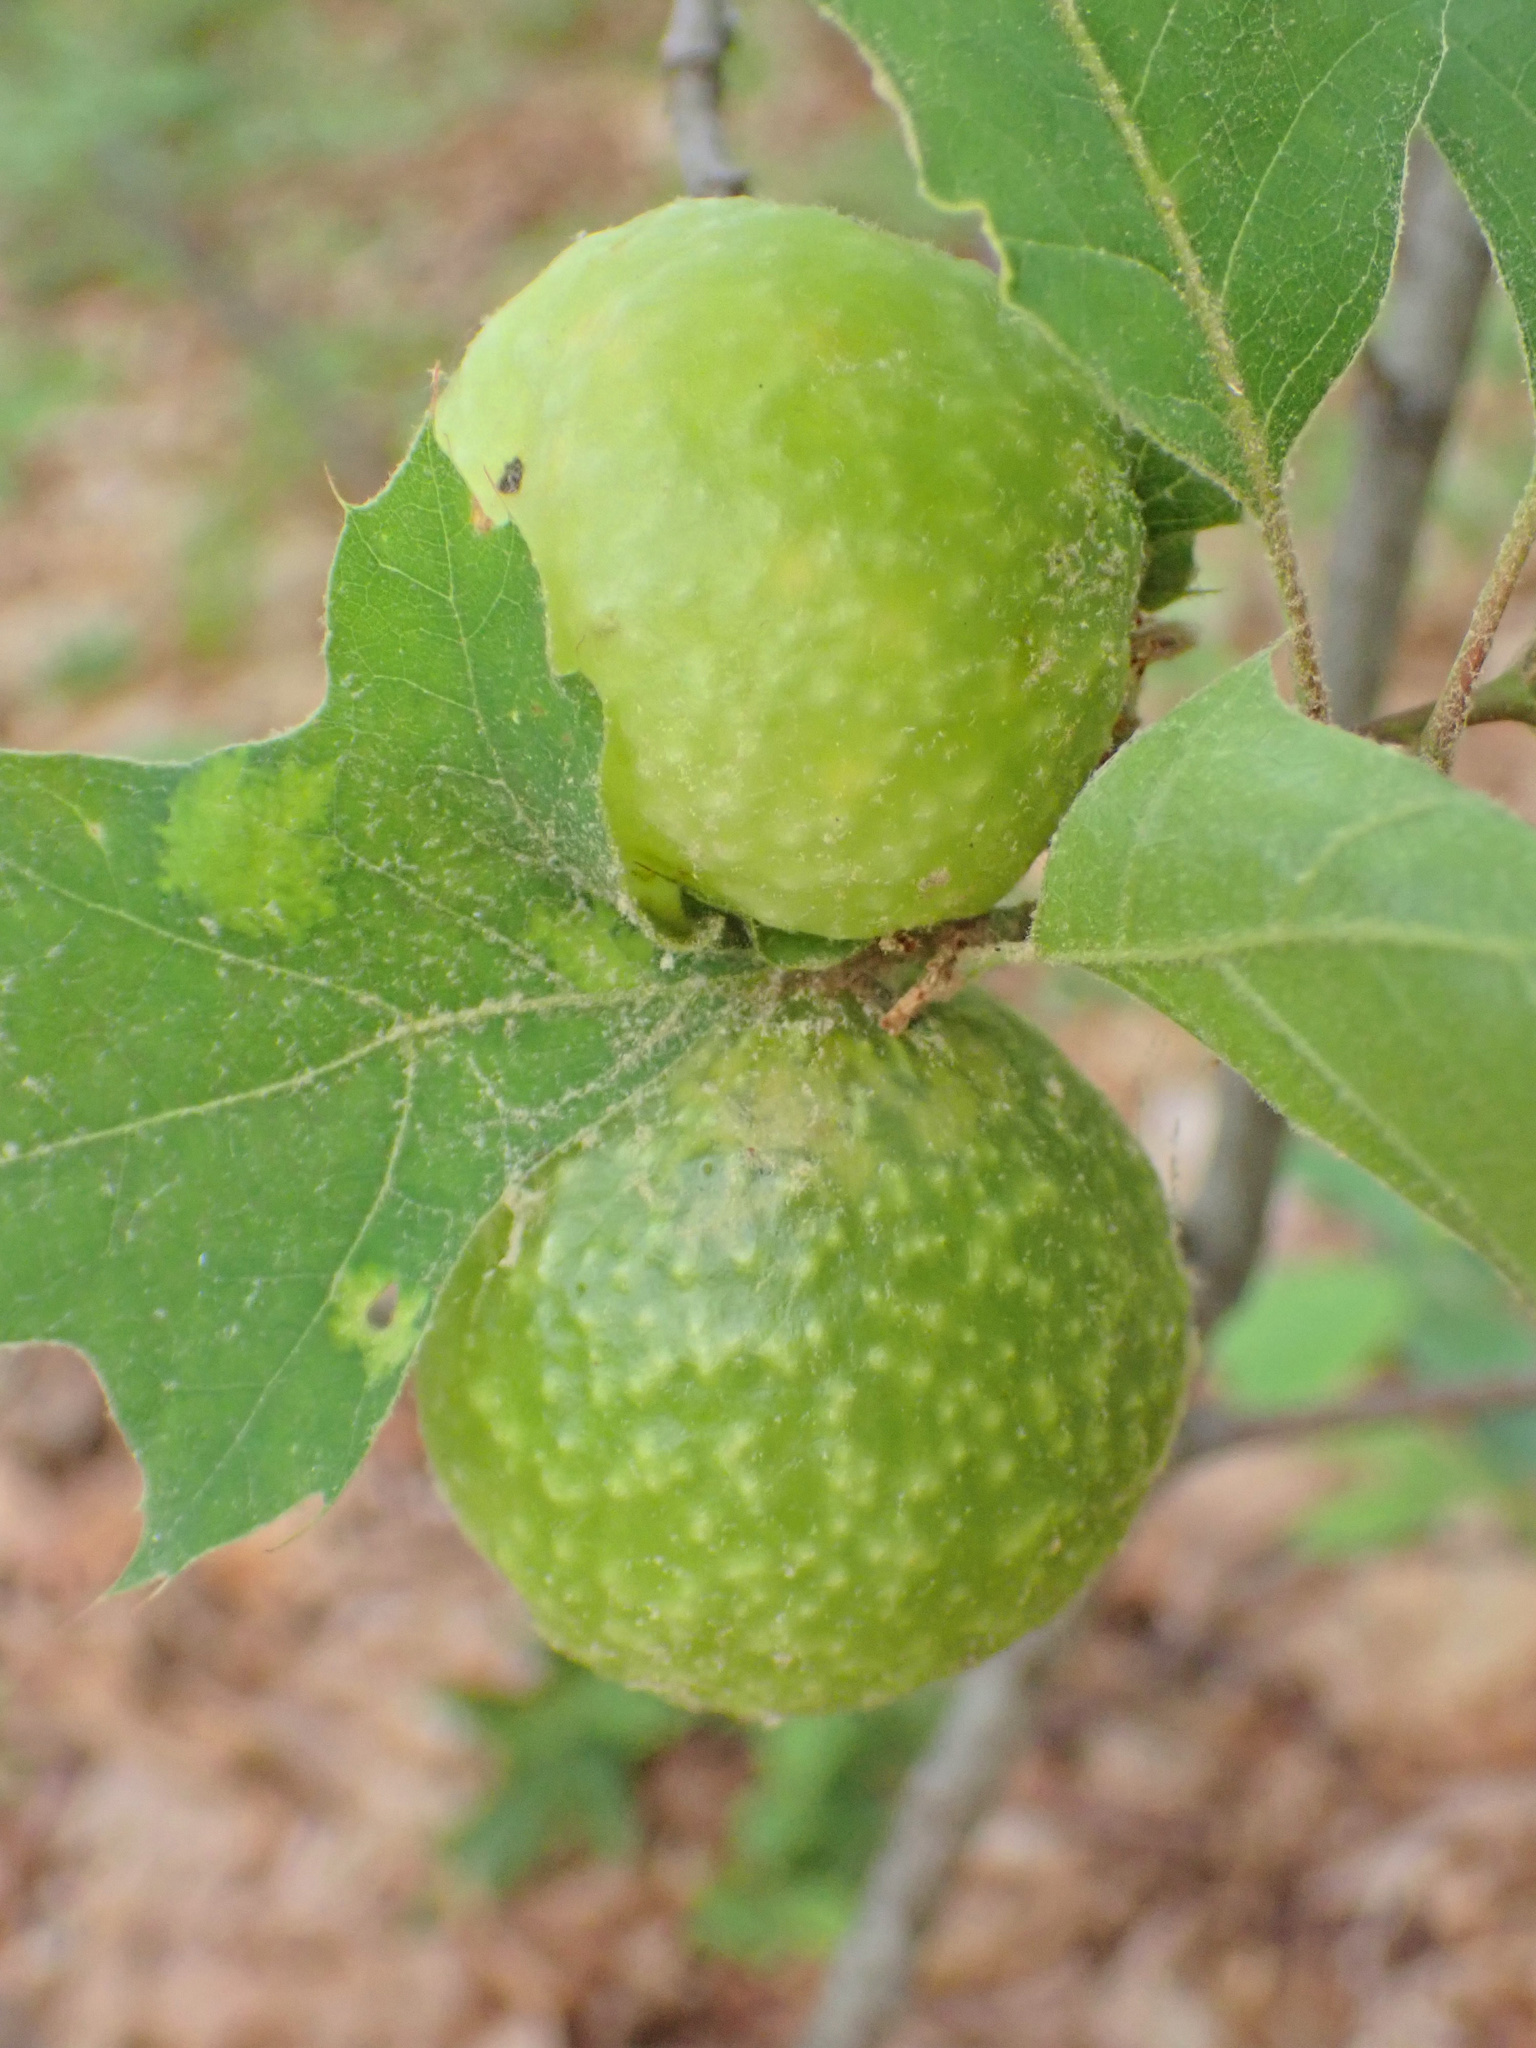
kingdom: Animalia
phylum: Arthropoda
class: Insecta
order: Hymenoptera
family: Cynipidae
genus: Amphibolips
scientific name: Amphibolips
